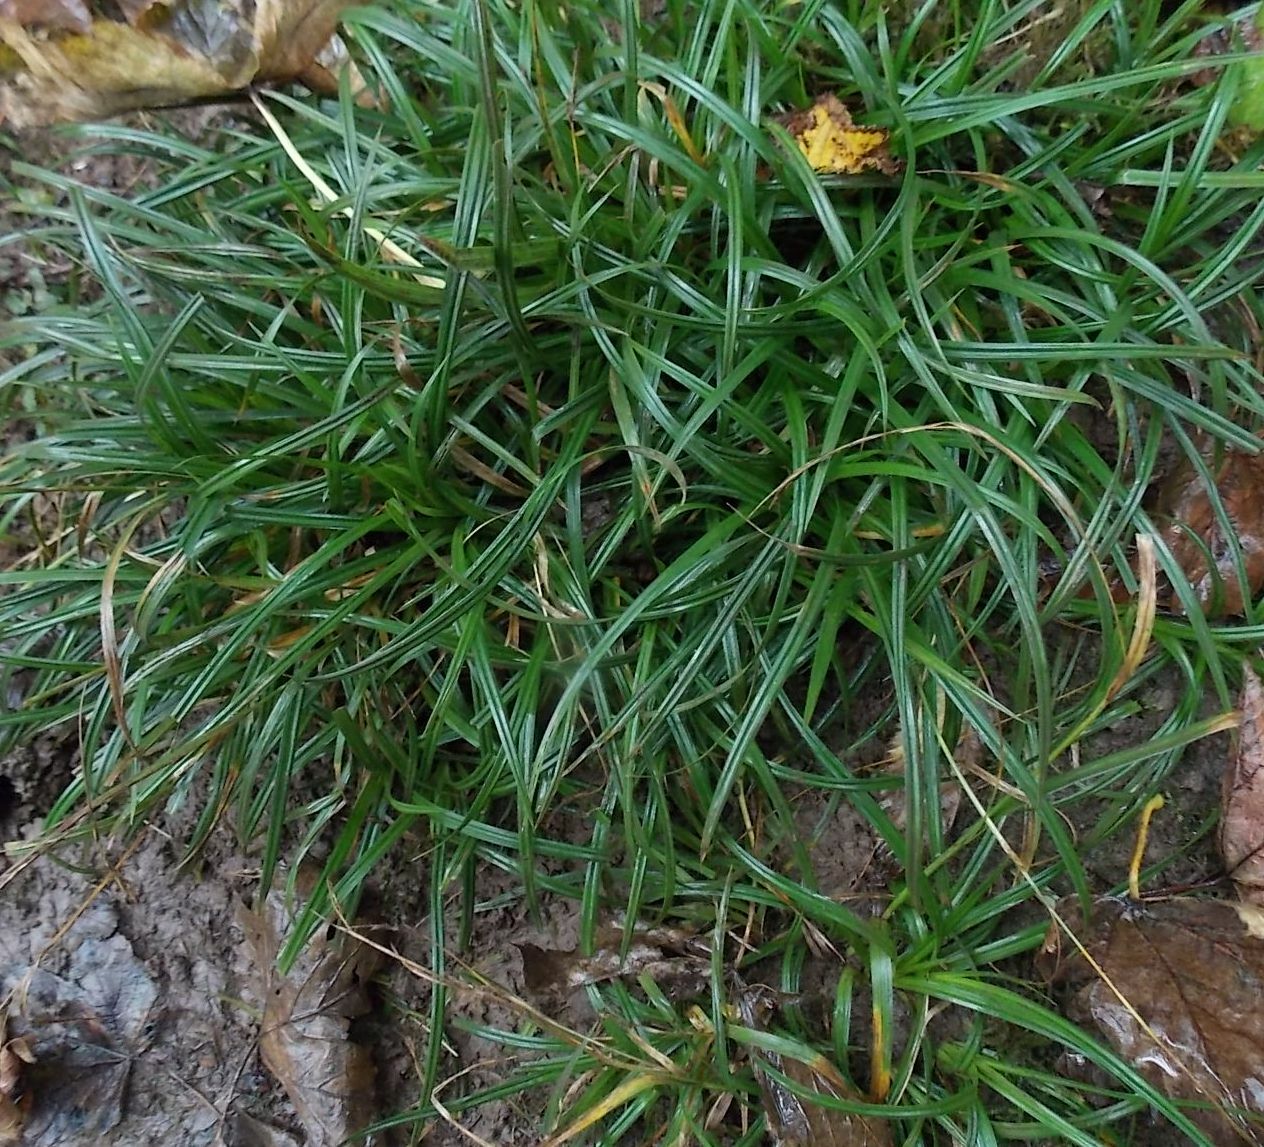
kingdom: Plantae
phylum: Tracheophyta
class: Liliopsida
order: Poales
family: Cyperaceae
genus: Carex
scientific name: Carex sylvatica
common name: Wood-sedge
